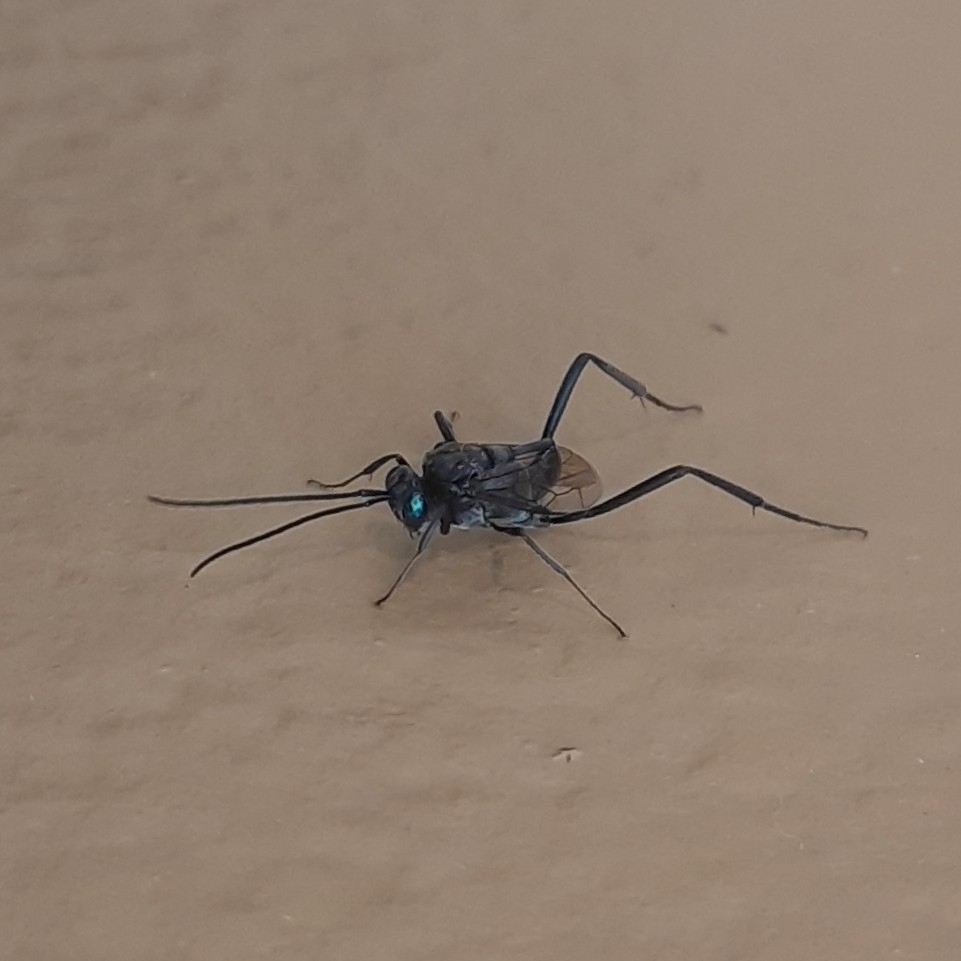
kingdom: Animalia
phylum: Arthropoda
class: Insecta
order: Hymenoptera
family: Evaniidae
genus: Evania
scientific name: Evania appendigaster
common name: Ensign wasp
